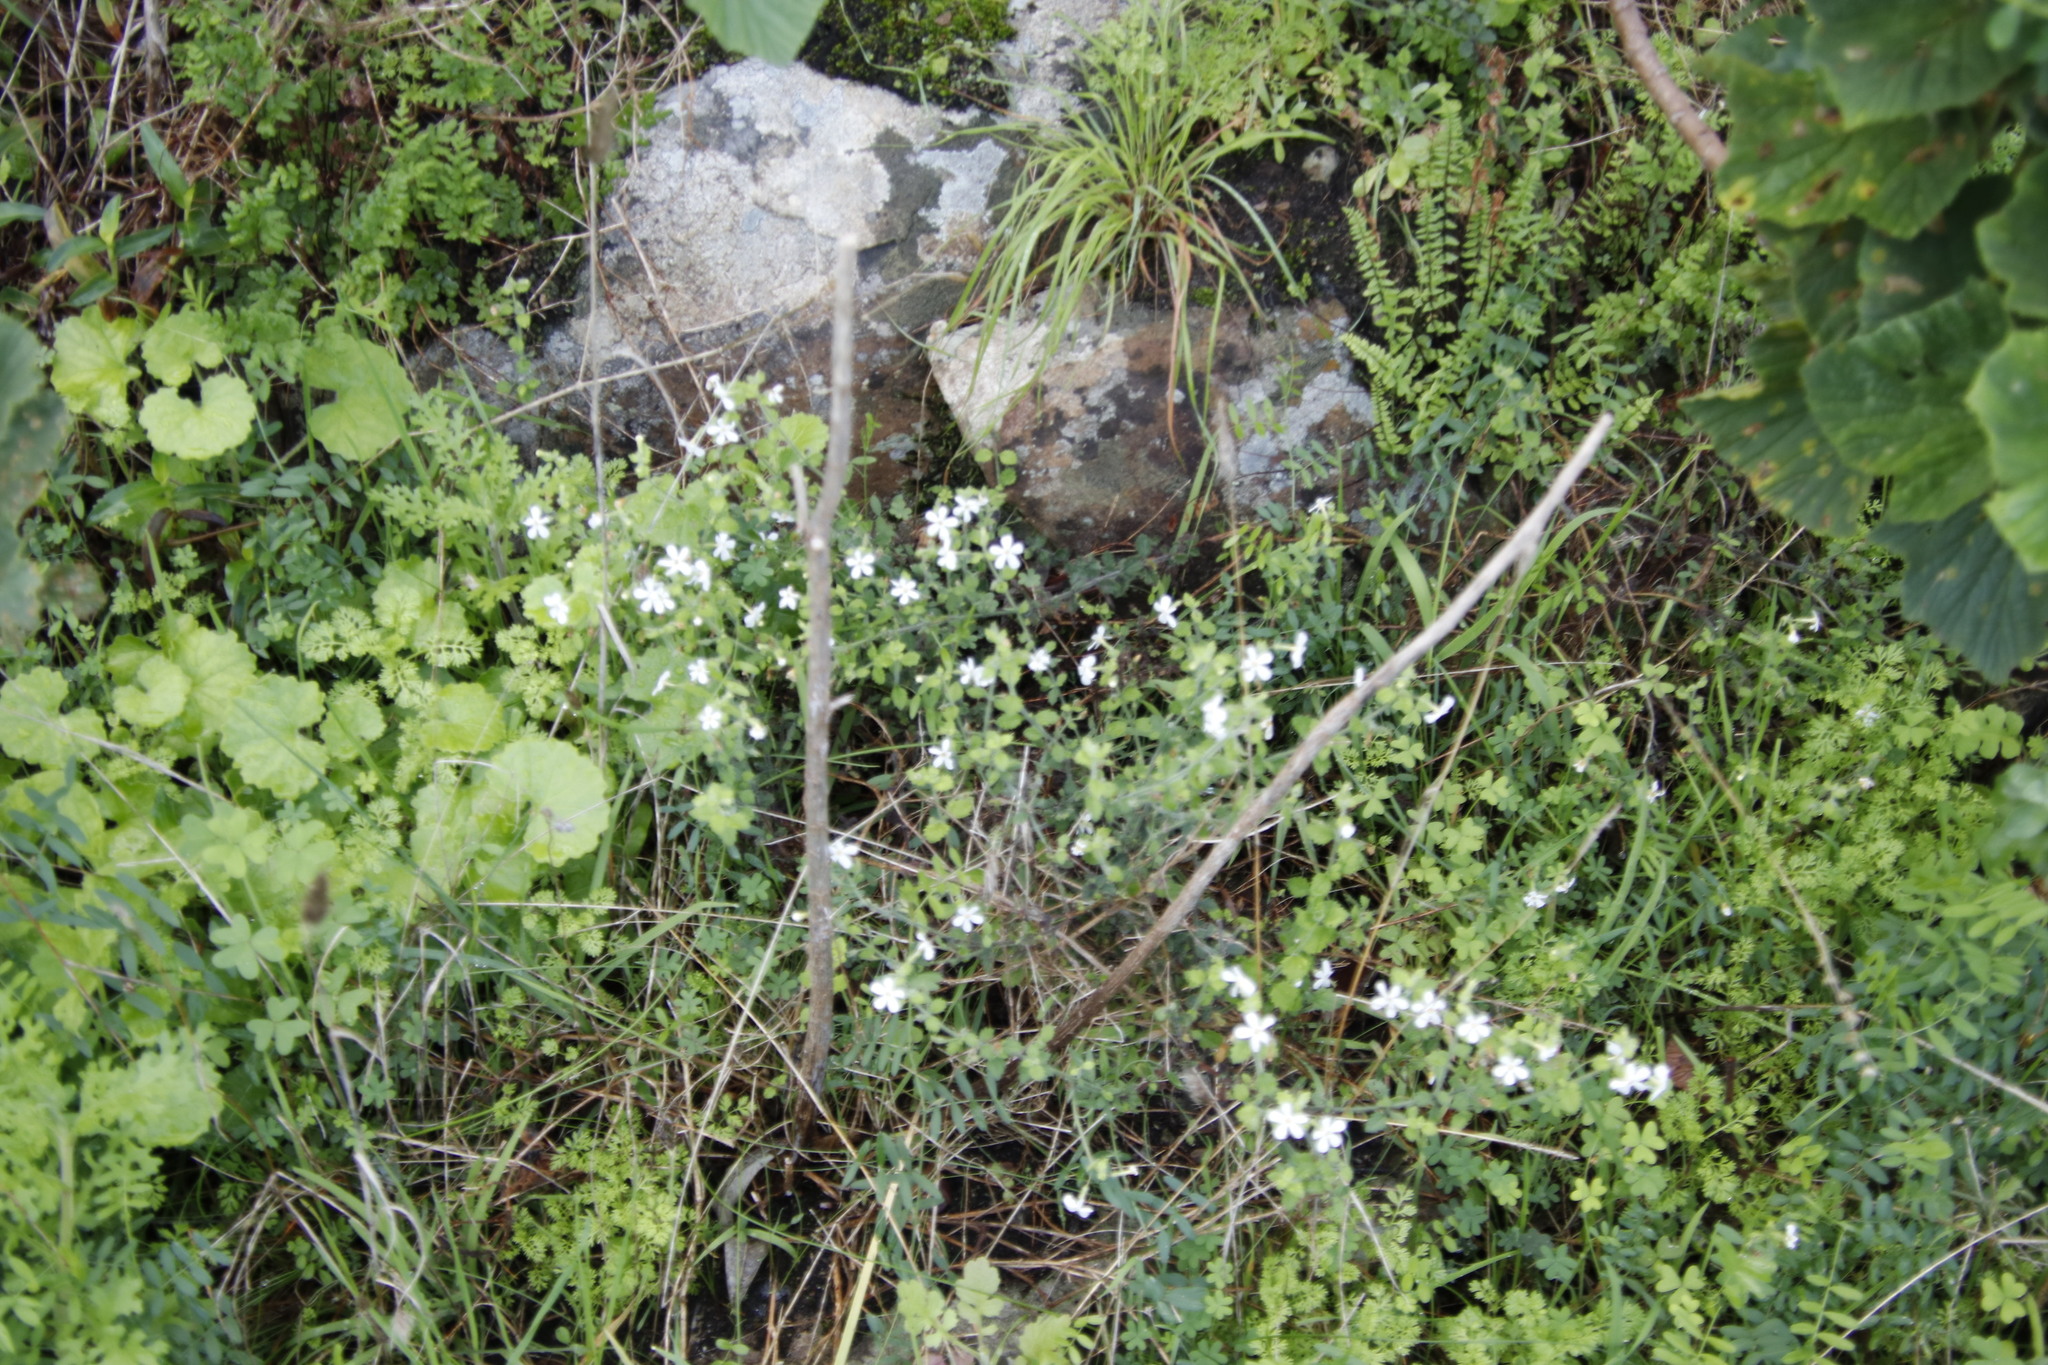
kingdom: Plantae
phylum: Tracheophyta
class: Magnoliopsida
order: Lamiales
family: Scrophulariaceae
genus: Chaenostoma
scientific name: Chaenostoma hispidum
